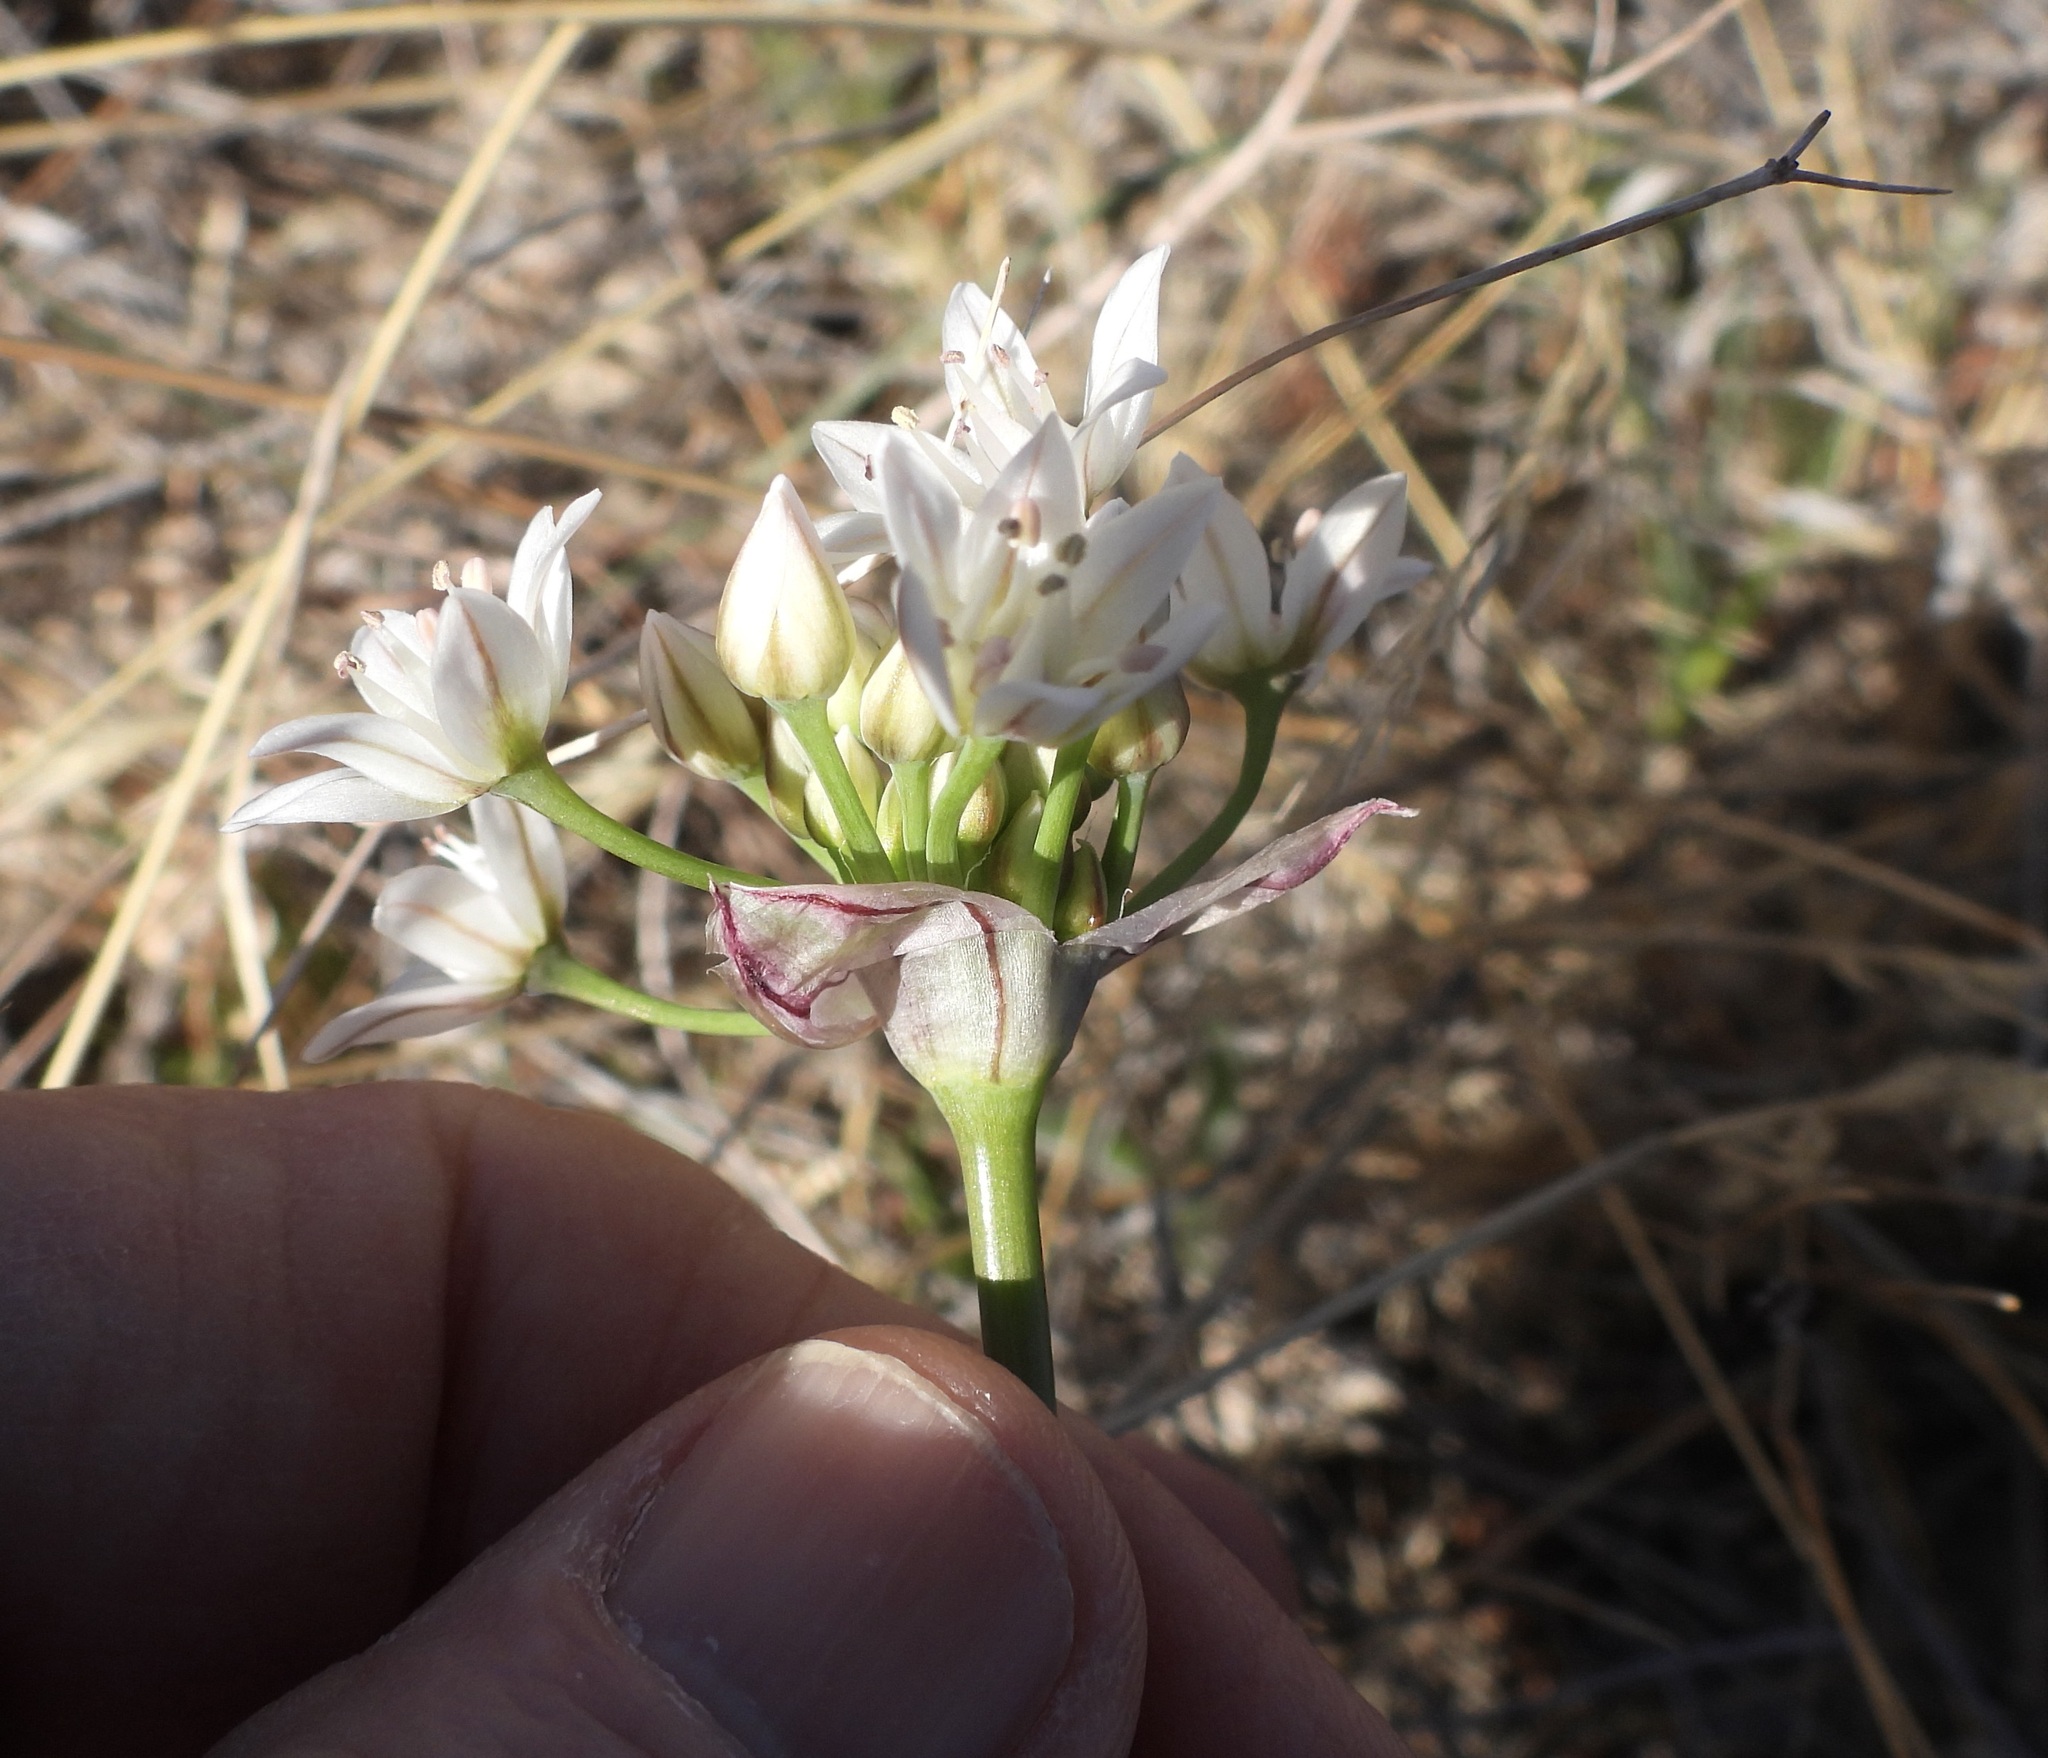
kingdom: Plantae
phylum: Tracheophyta
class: Liliopsida
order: Asparagales
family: Amaryllidaceae
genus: Allium
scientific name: Allium drummondii
